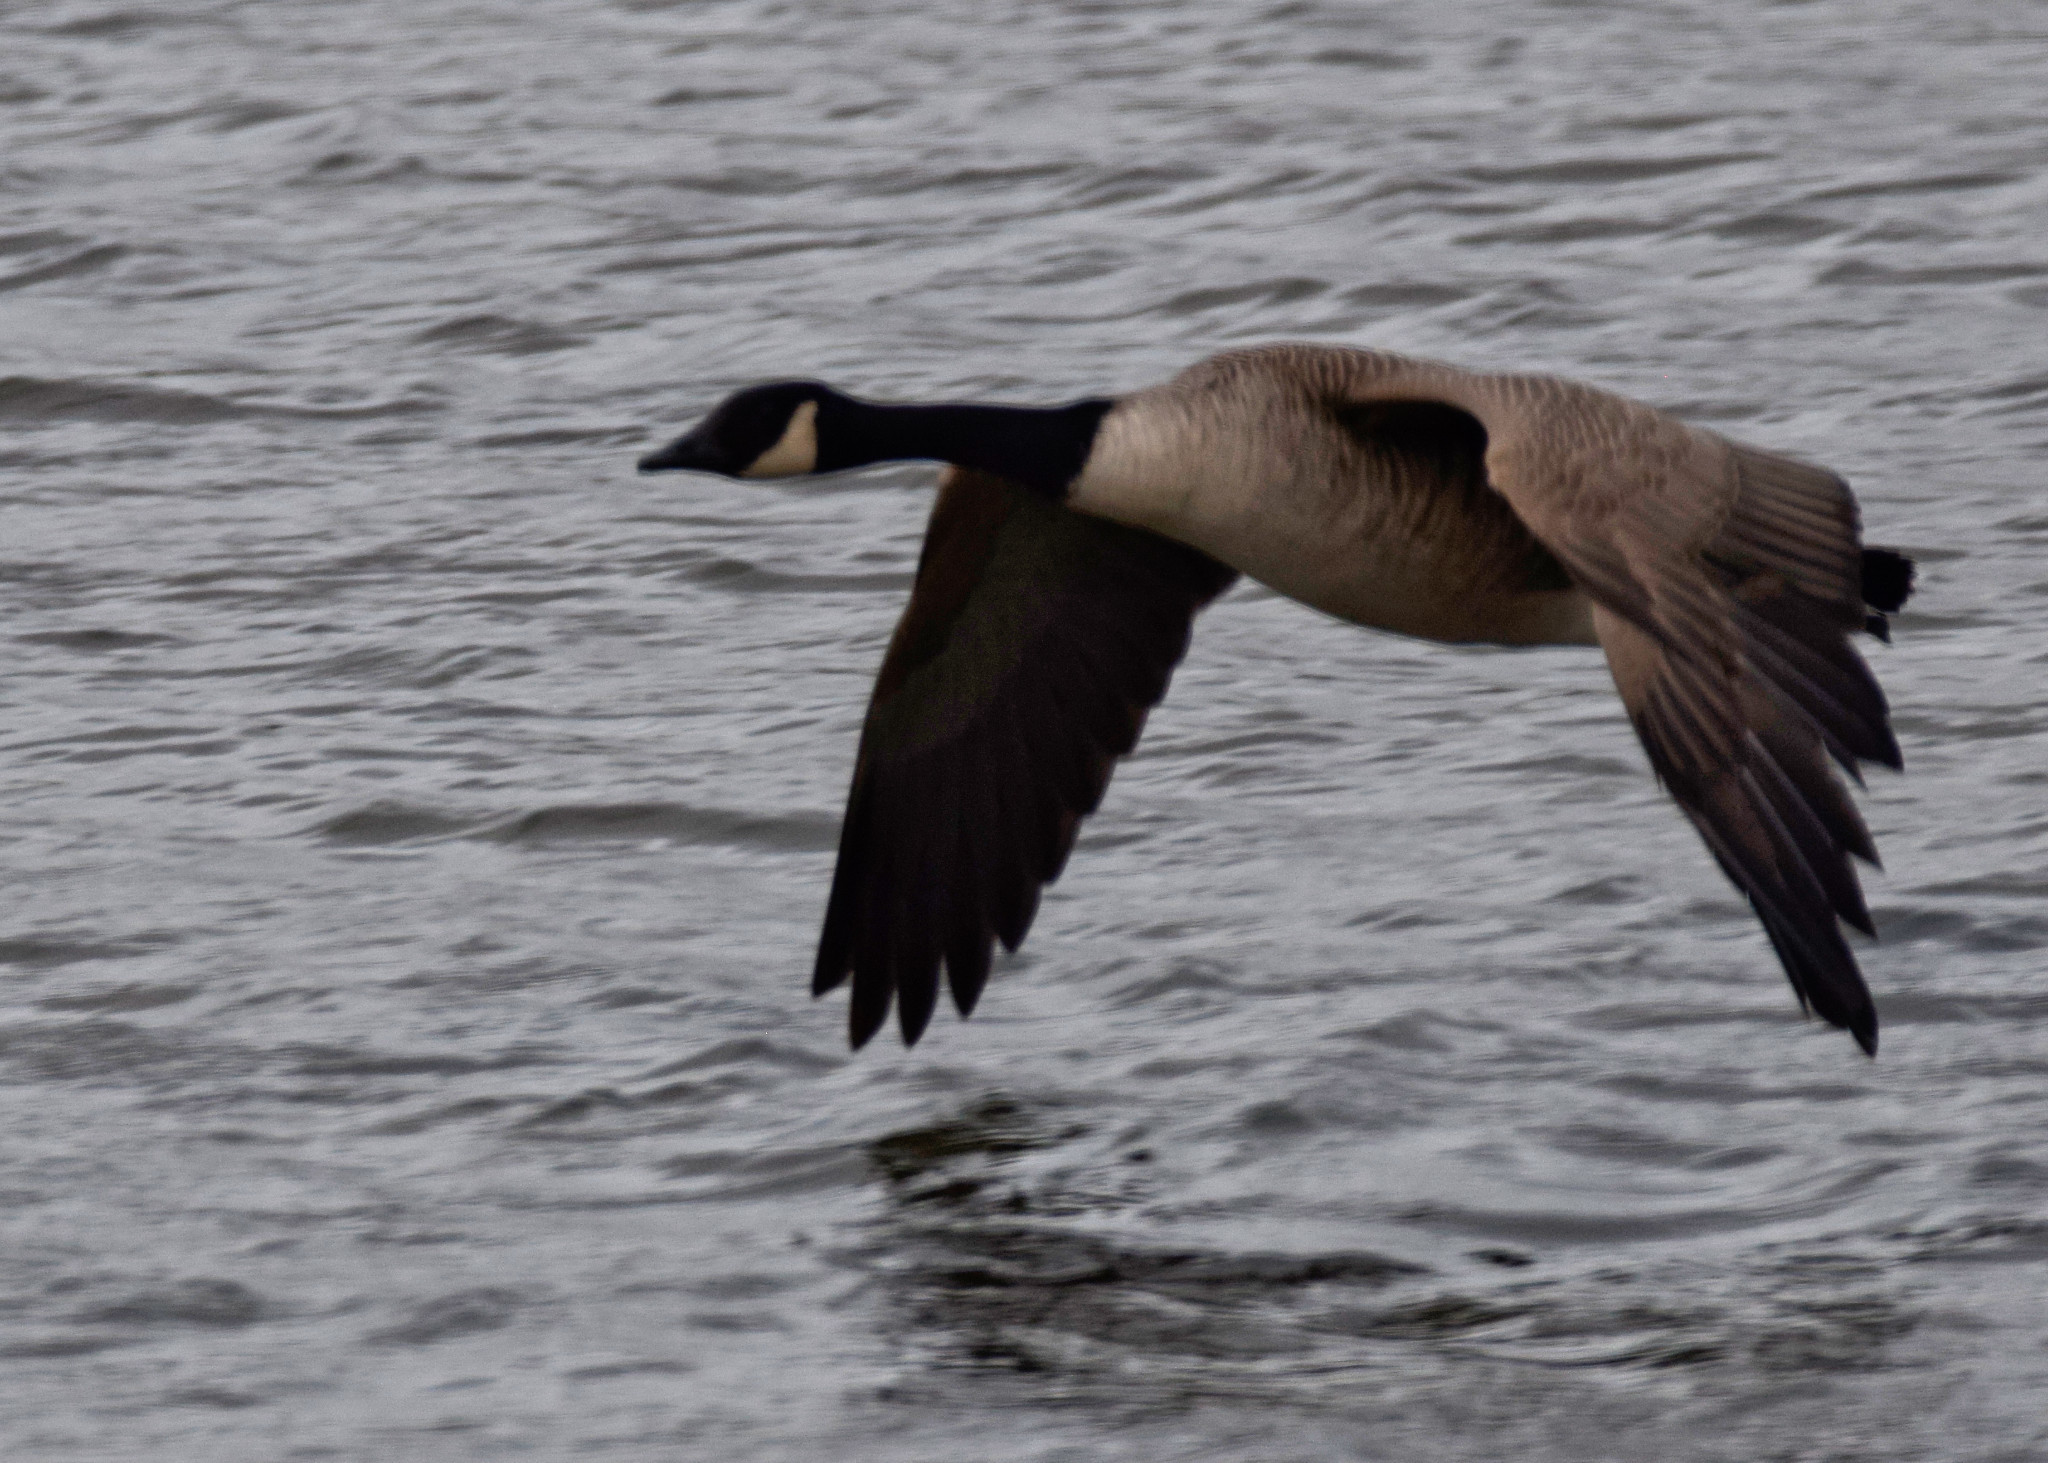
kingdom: Animalia
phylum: Chordata
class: Aves
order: Anseriformes
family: Anatidae
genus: Branta
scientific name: Branta canadensis
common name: Canada goose
